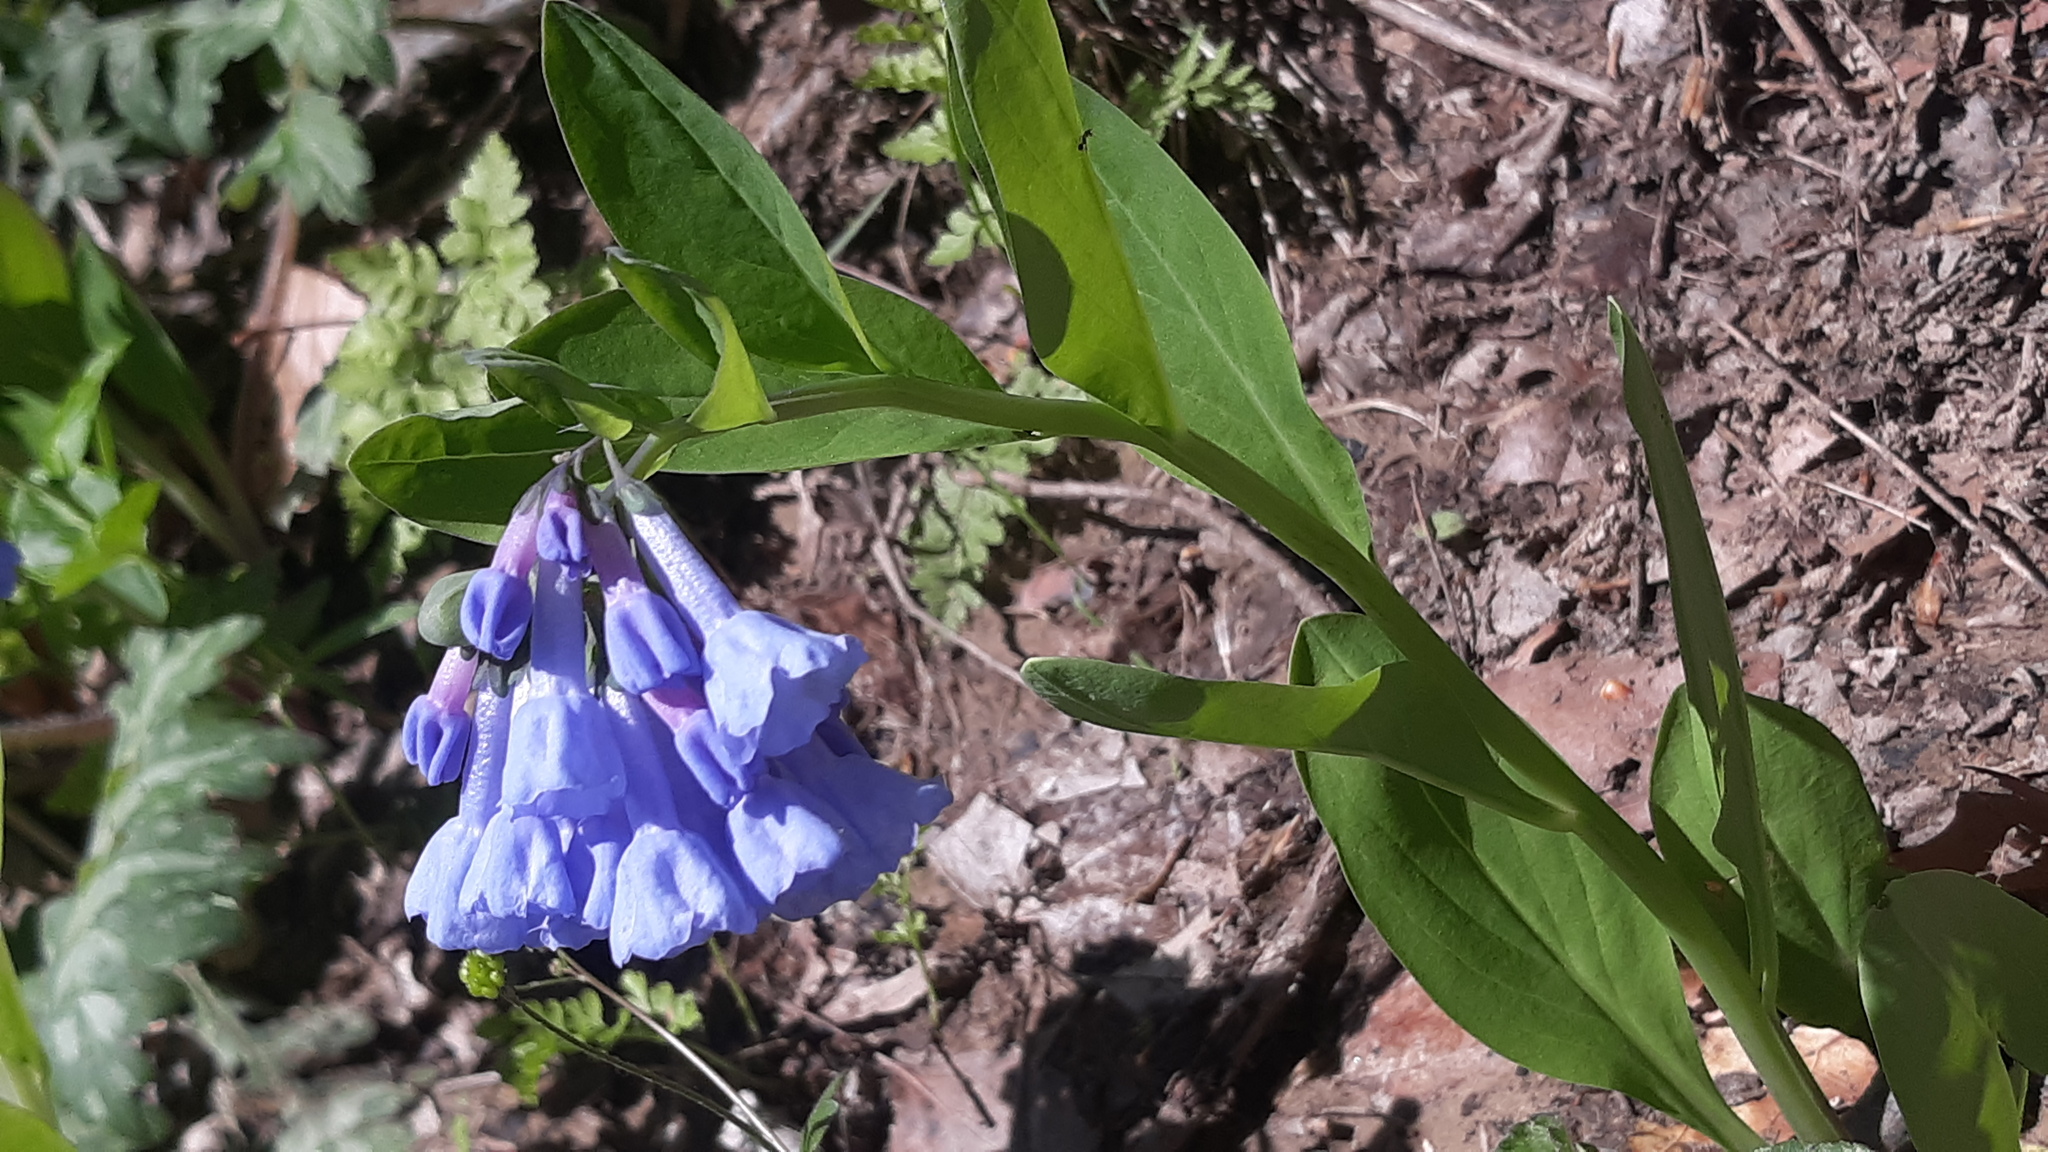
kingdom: Plantae
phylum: Tracheophyta
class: Magnoliopsida
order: Boraginales
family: Boraginaceae
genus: Mertensia
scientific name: Mertensia virginica
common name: Virginia bluebells
